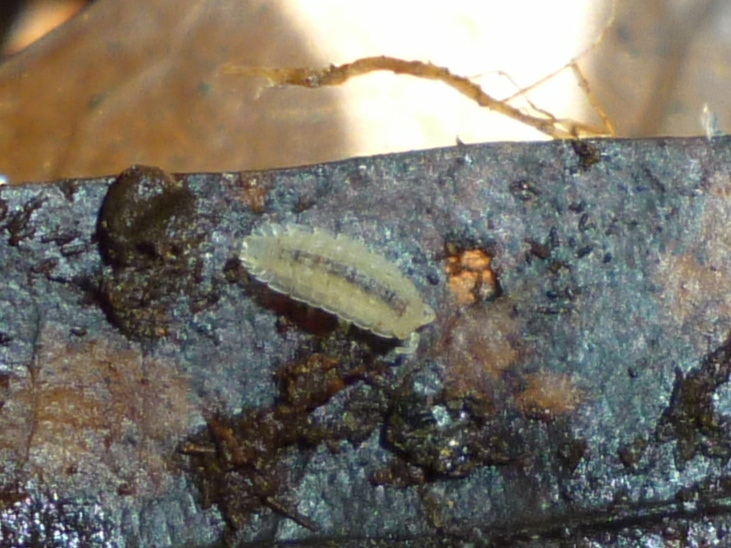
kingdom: Animalia
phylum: Arthropoda
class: Malacostraca
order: Isopoda
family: Trichoniscidae
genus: Haplophthalmus
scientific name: Haplophthalmus danicus
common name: Pillbug
